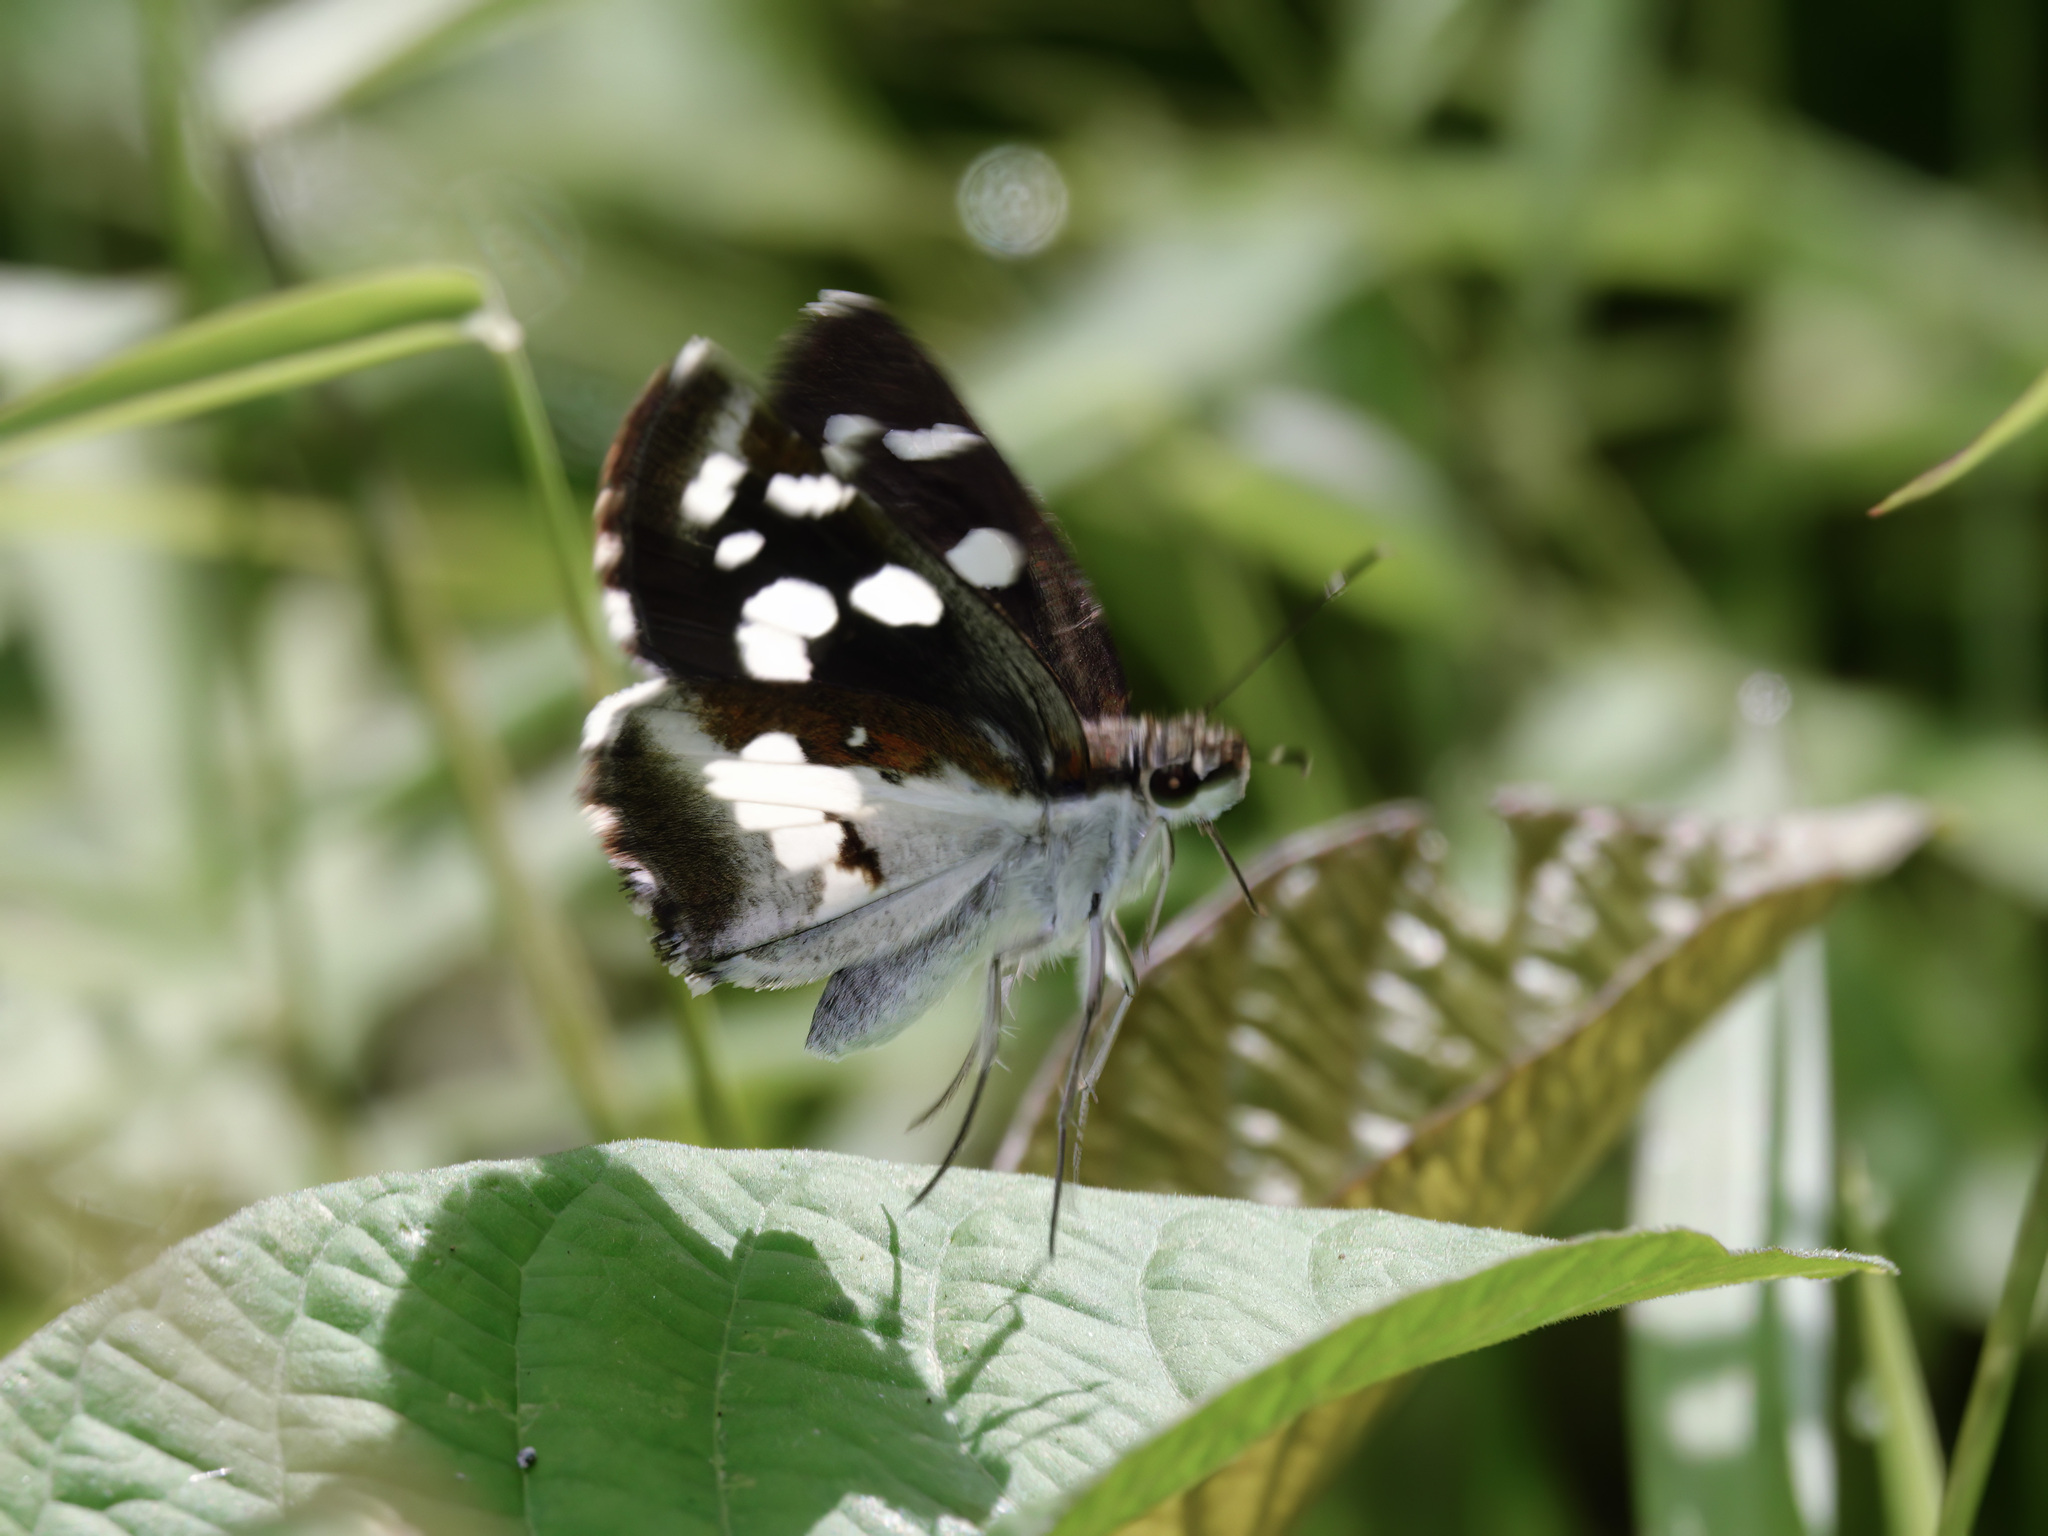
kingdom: Animalia
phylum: Arthropoda
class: Insecta
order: Lepidoptera
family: Hesperiidae
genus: Udaspes
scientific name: Udaspes folus
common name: Grass demon
